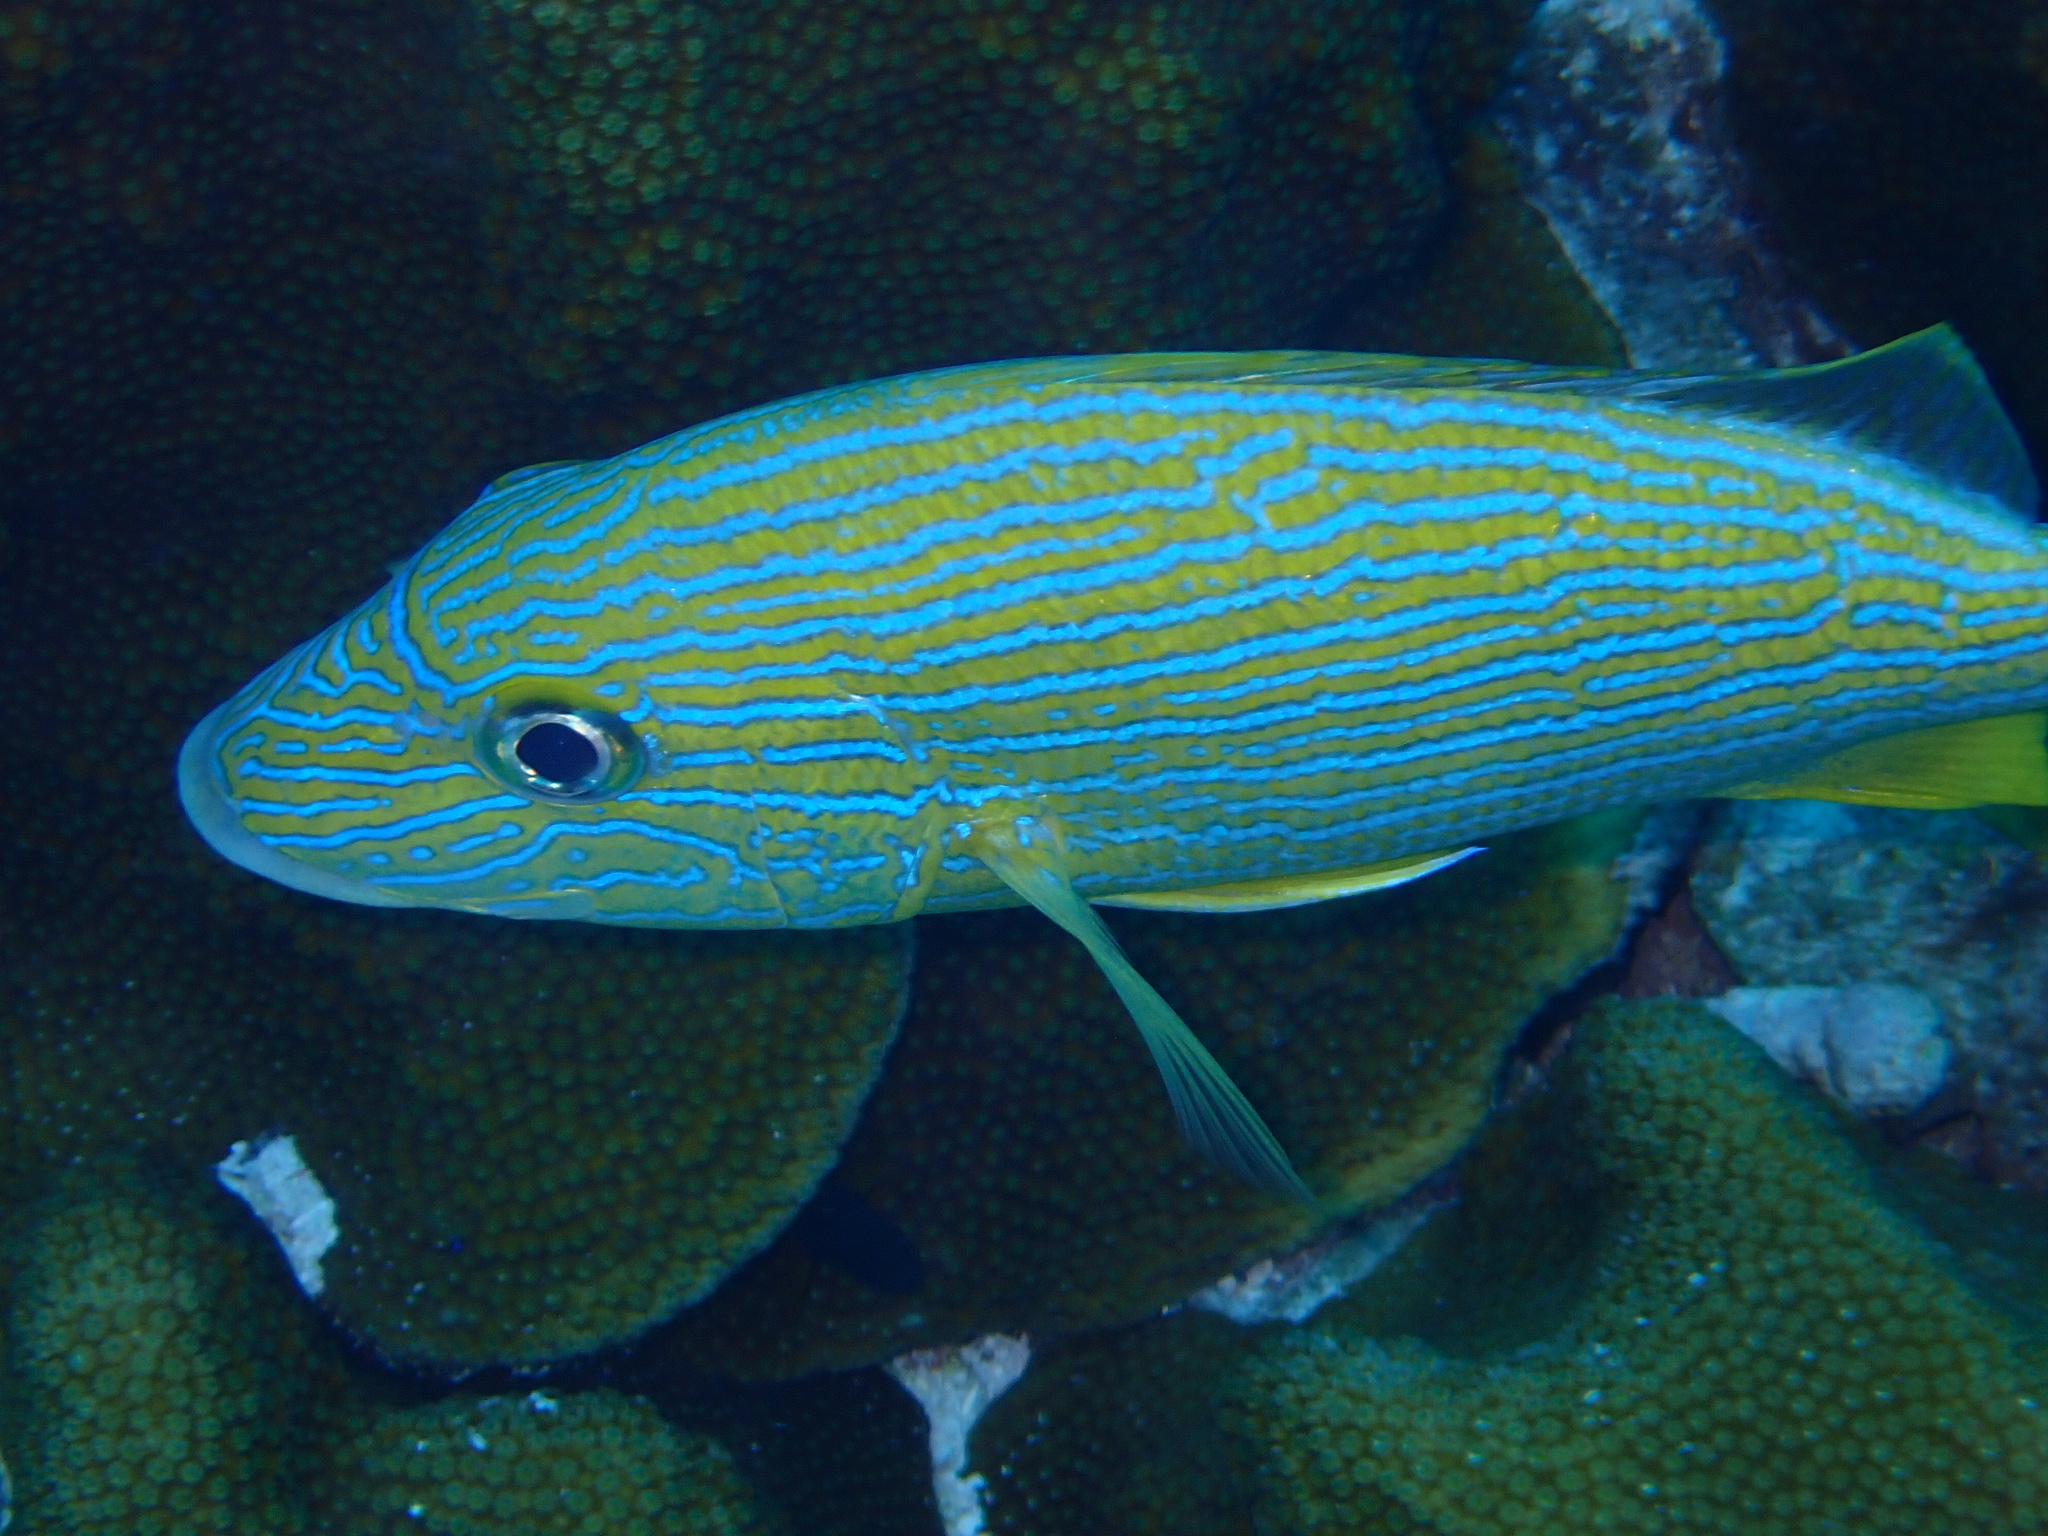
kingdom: Animalia
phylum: Chordata
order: Perciformes
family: Haemulidae
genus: Haemulon
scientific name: Haemulon sciurus
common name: Bluestriped grunt
